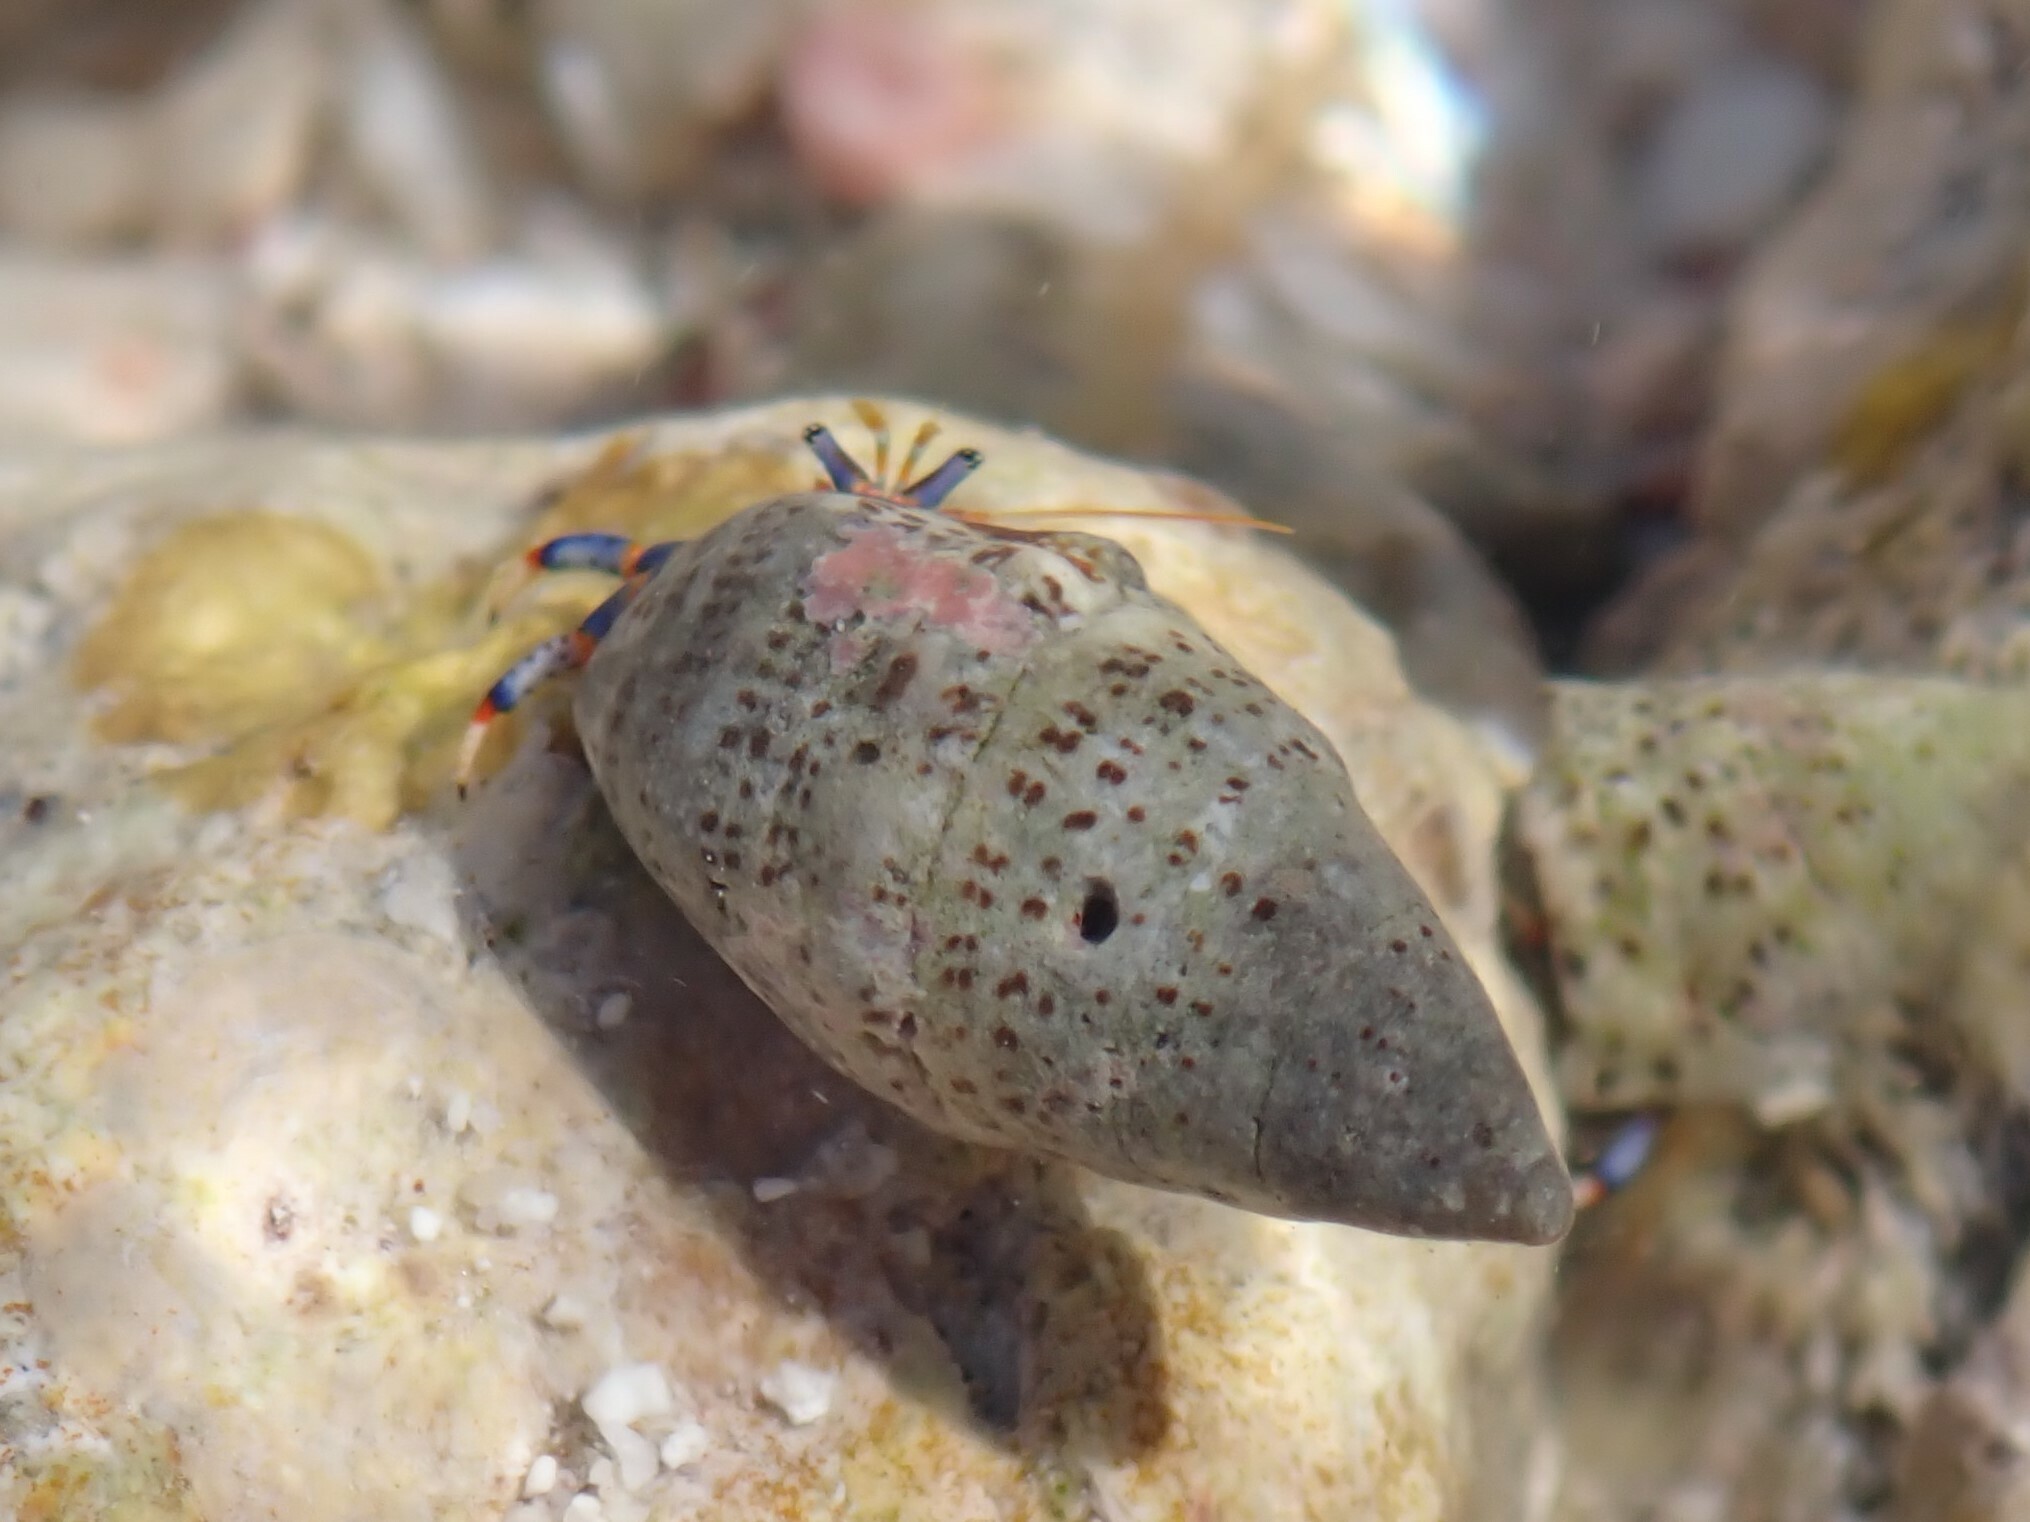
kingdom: Animalia
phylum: Arthropoda
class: Malacostraca
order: Decapoda
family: Diogenidae
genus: Clibanarius
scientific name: Clibanarius tricolor
